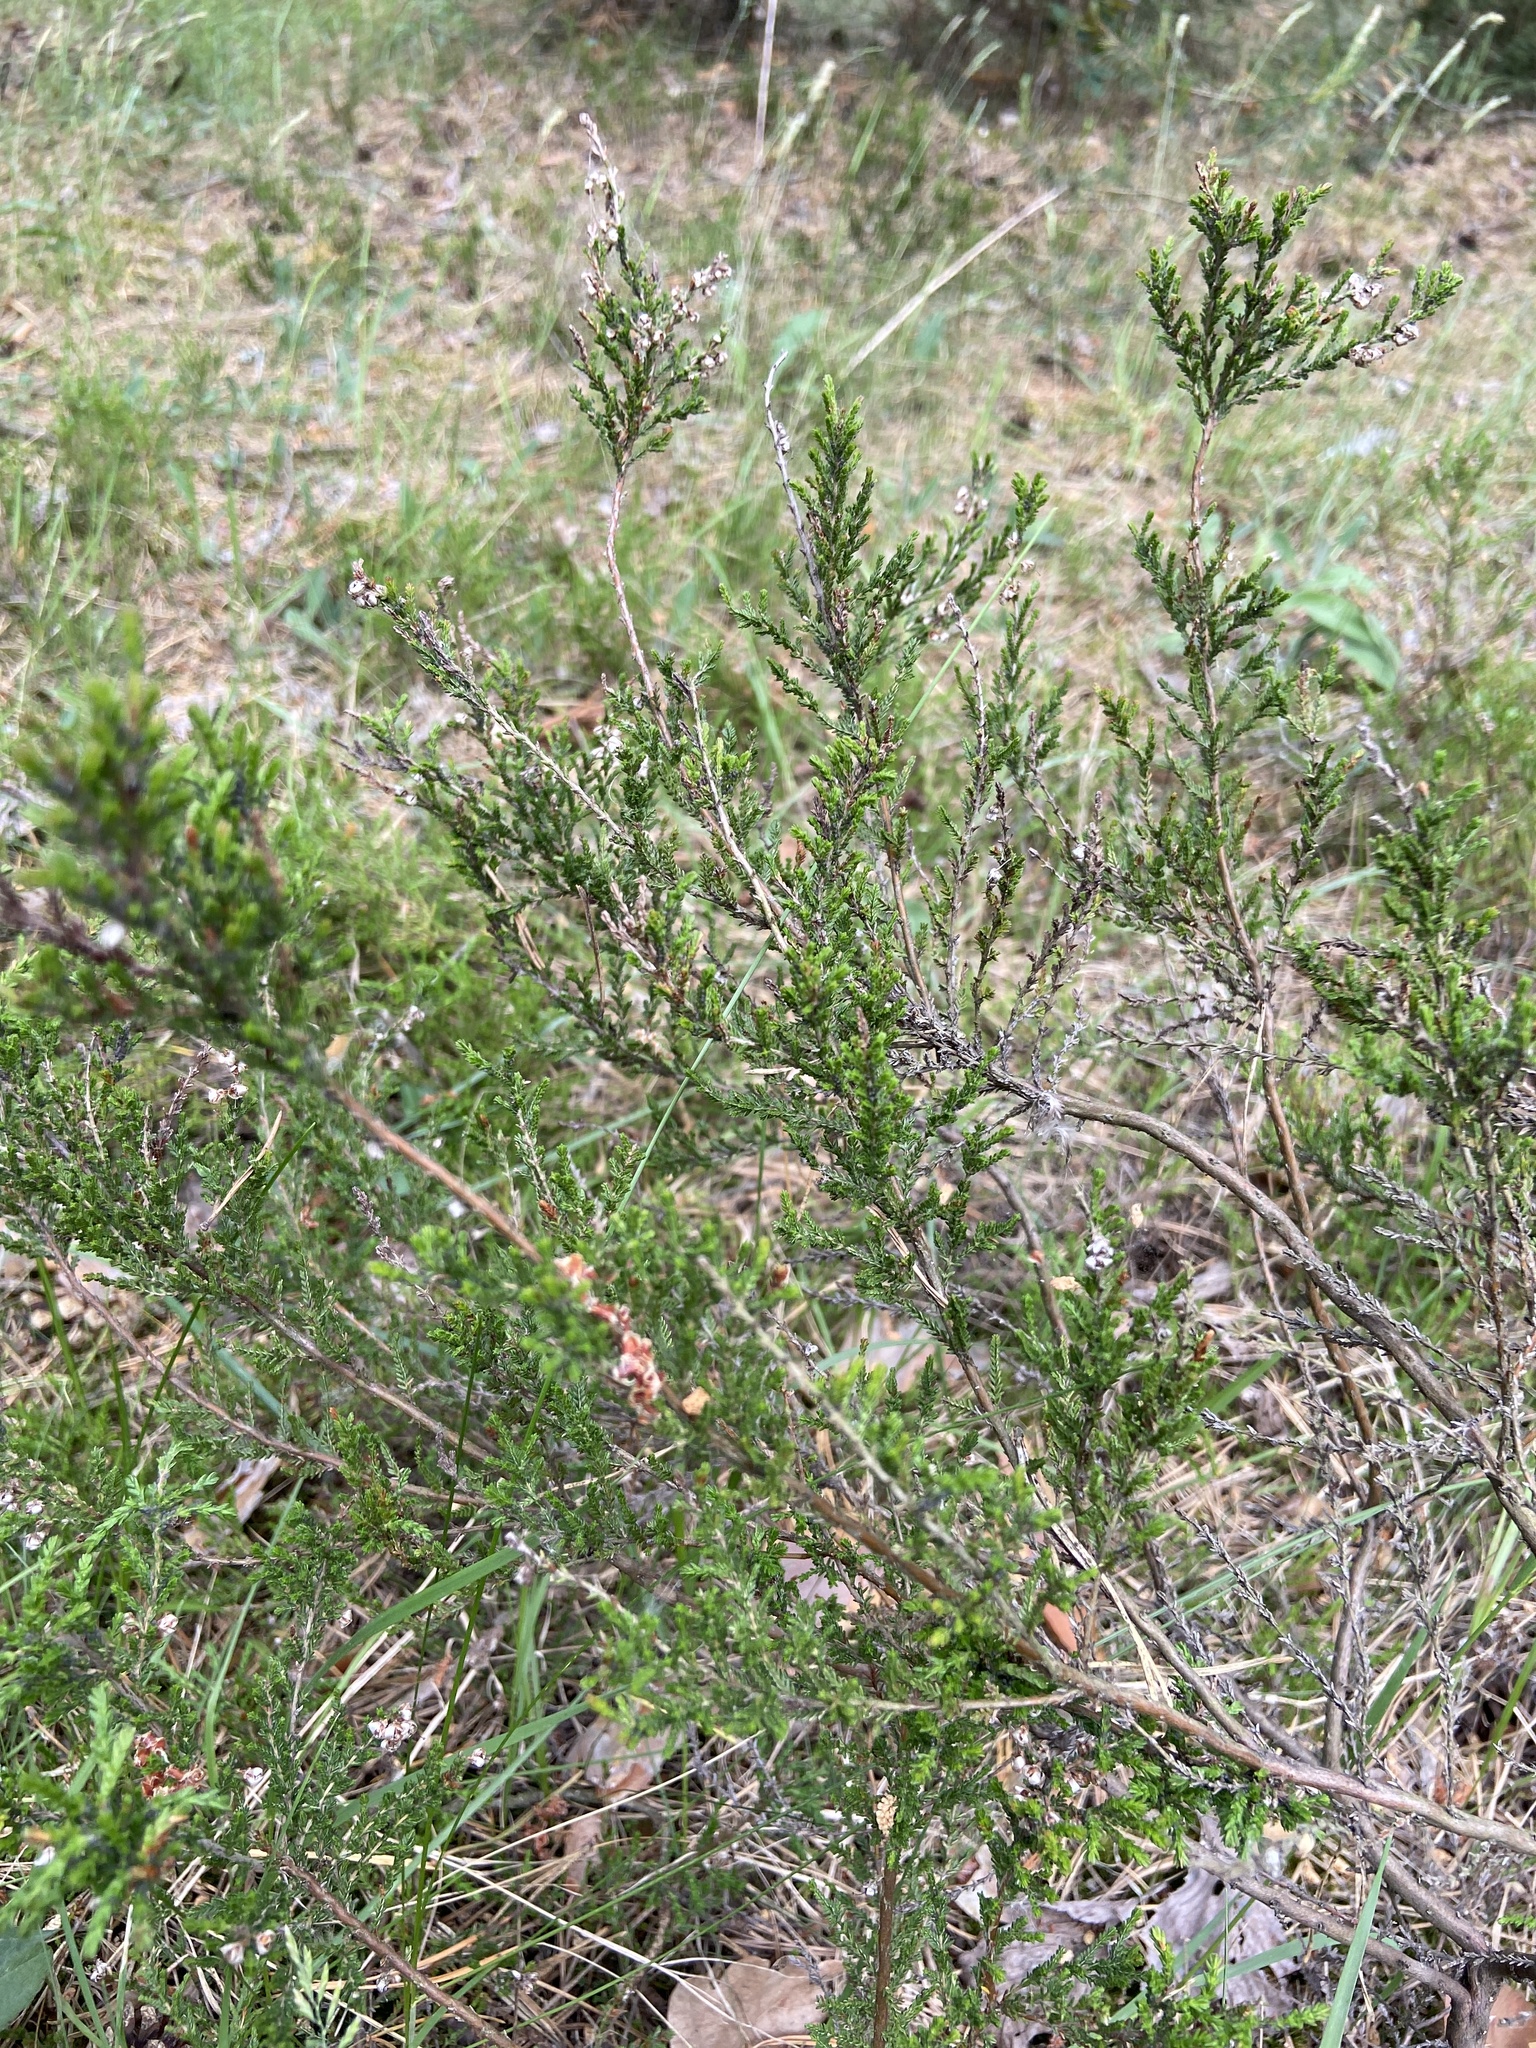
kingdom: Plantae
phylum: Tracheophyta
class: Magnoliopsida
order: Ericales
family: Ericaceae
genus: Calluna
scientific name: Calluna vulgaris
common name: Heather
